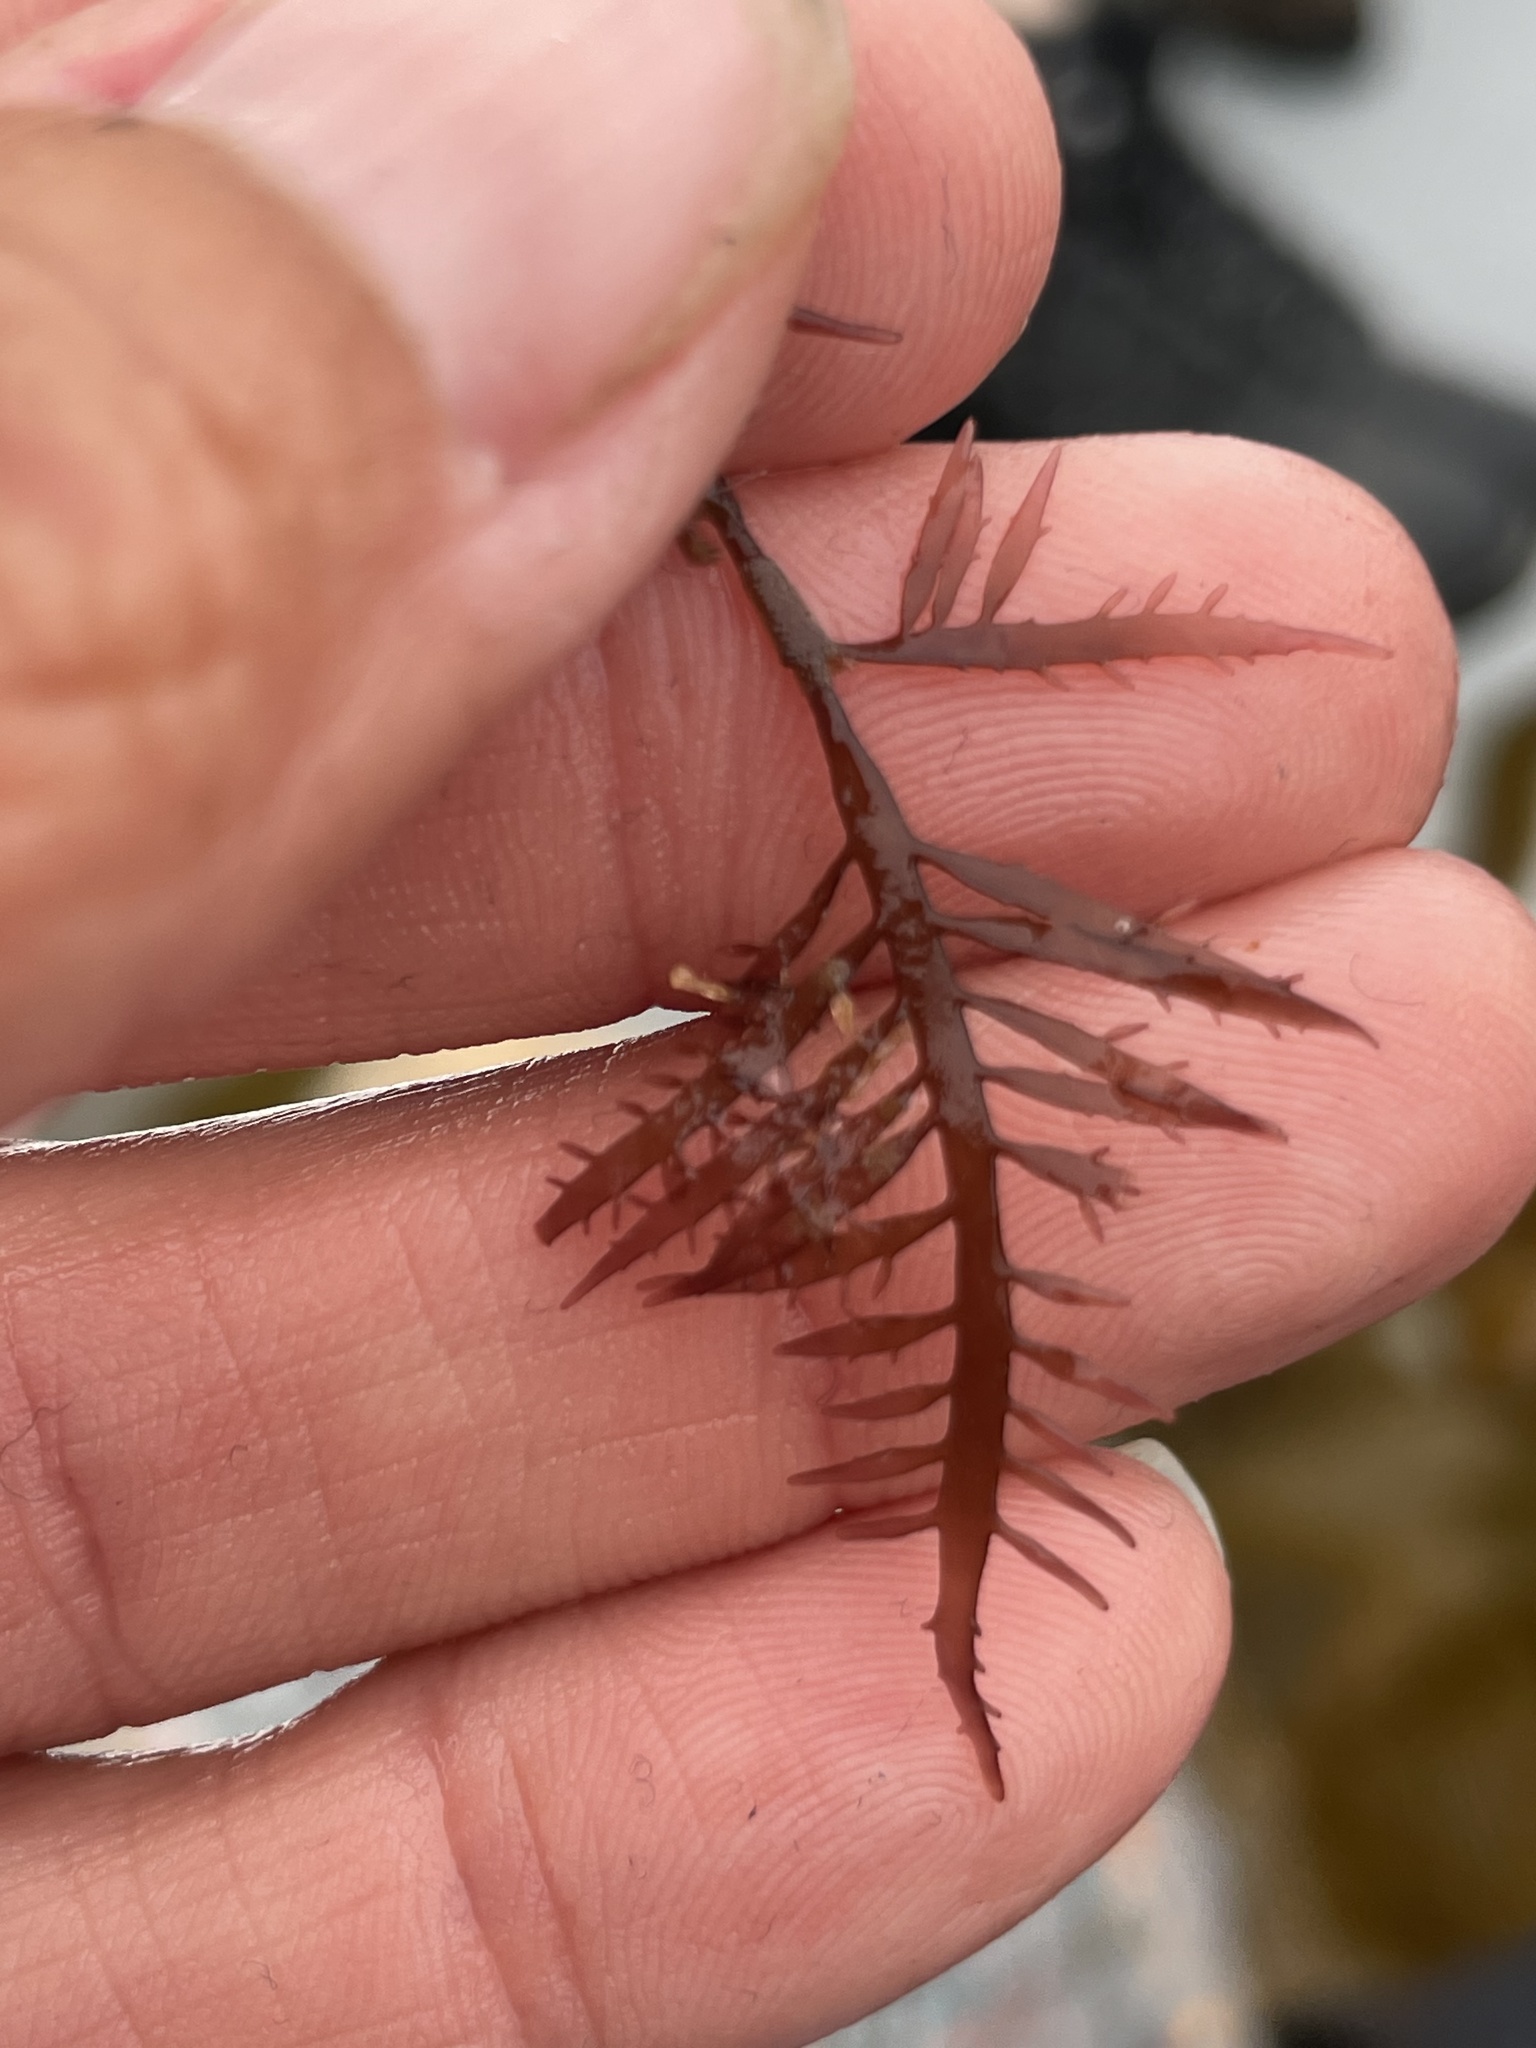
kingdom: Plantae
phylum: Rhodophyta
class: Florideophyceae
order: Gigartinales
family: Gigartinaceae
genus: Chondracanthus
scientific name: Chondracanthus canaliculatus
